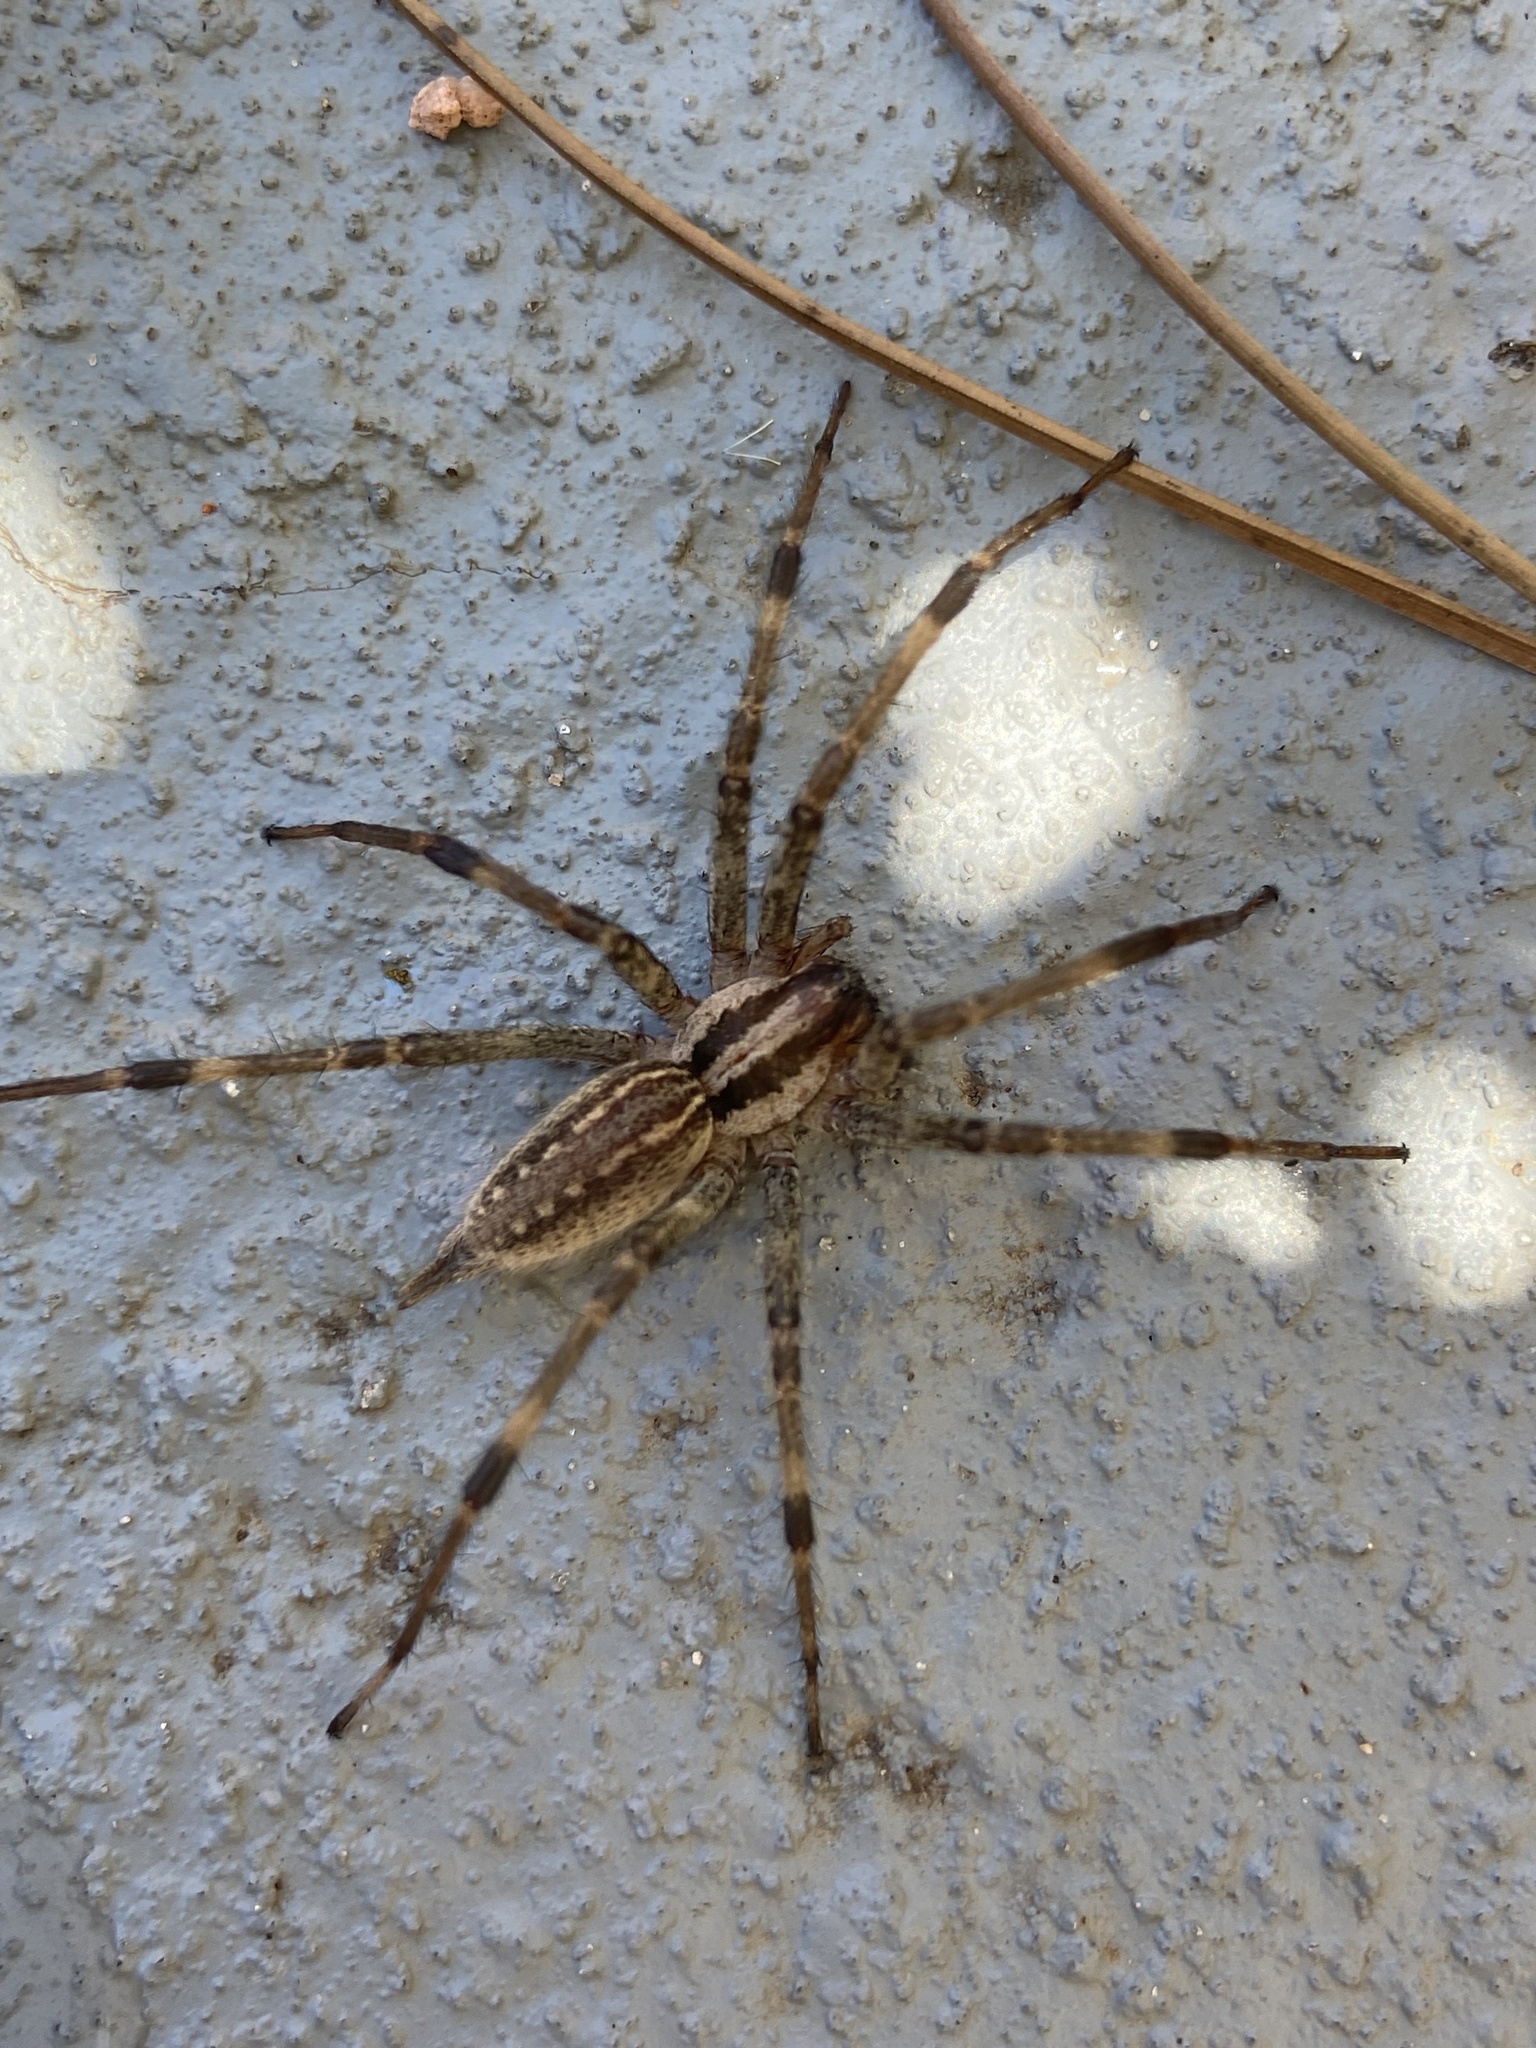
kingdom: Animalia
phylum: Arthropoda
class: Arachnida
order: Araneae
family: Agelenidae
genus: Agelenopsis
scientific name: Agelenopsis
